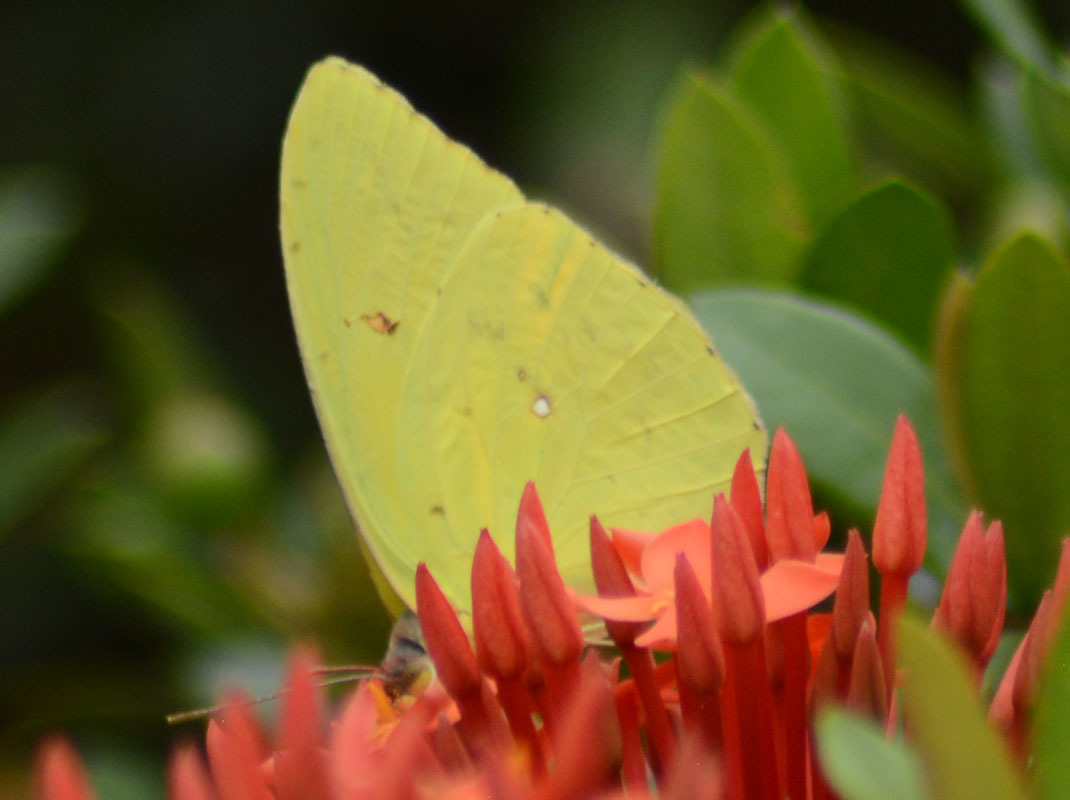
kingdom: Animalia
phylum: Arthropoda
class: Insecta
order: Lepidoptera
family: Pieridae
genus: Phoebis
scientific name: Phoebis sennae
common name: Cloudless sulphur
